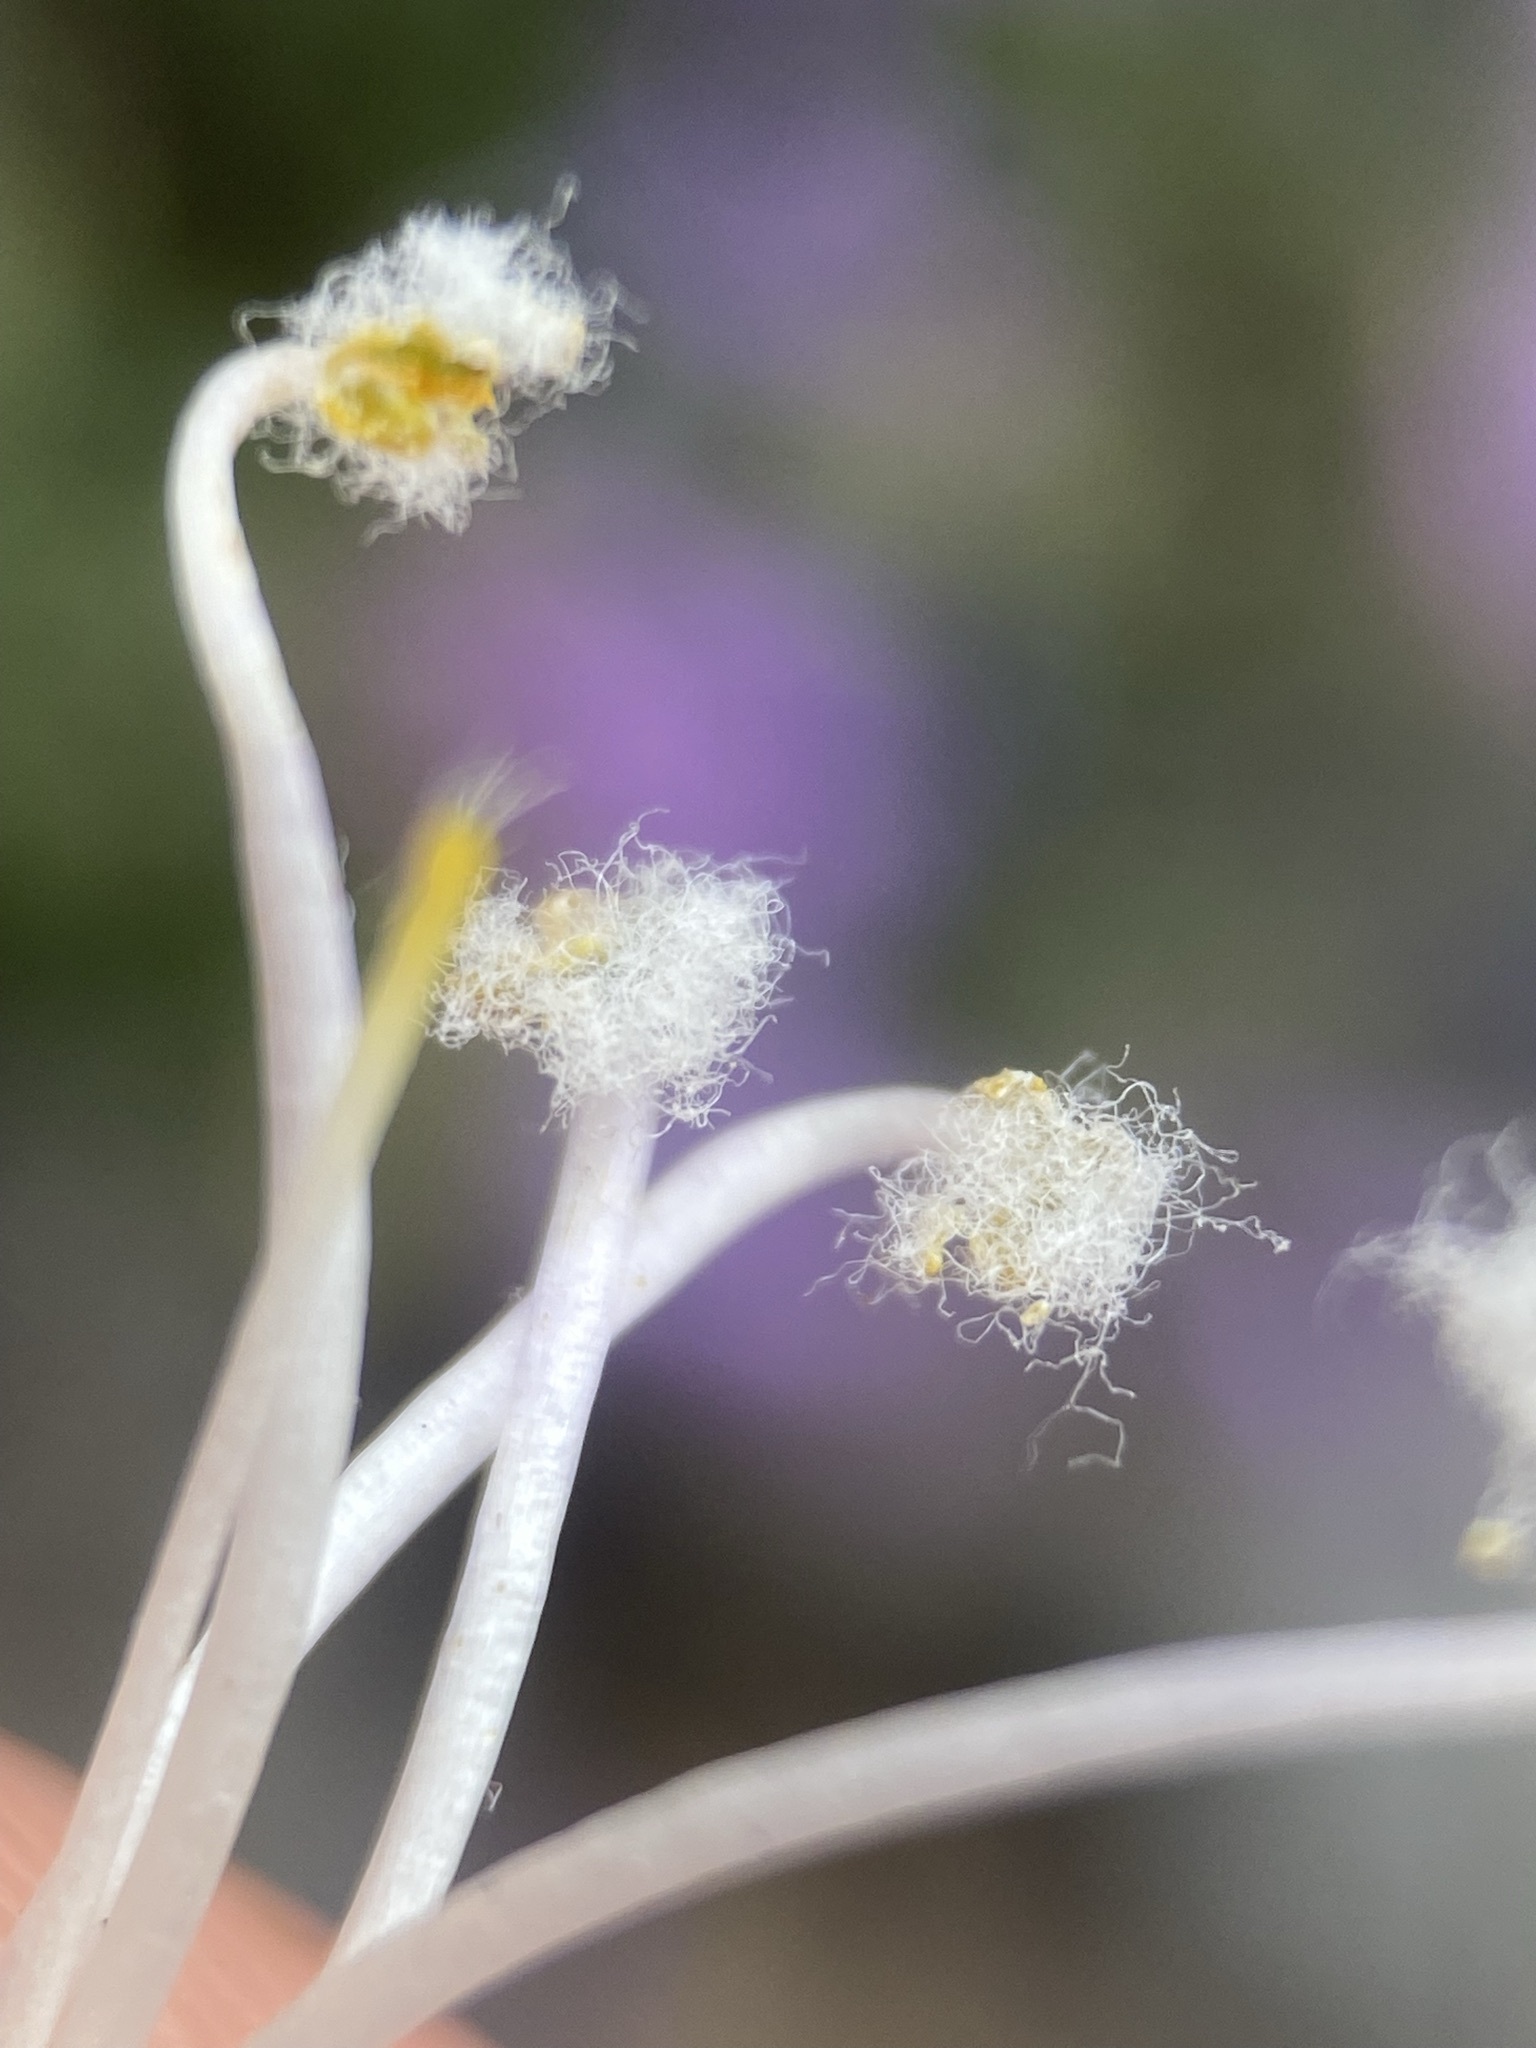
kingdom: Plantae
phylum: Tracheophyta
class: Magnoliopsida
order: Lamiales
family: Plantaginaceae
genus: Penstemon
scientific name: Penstemon montanus
